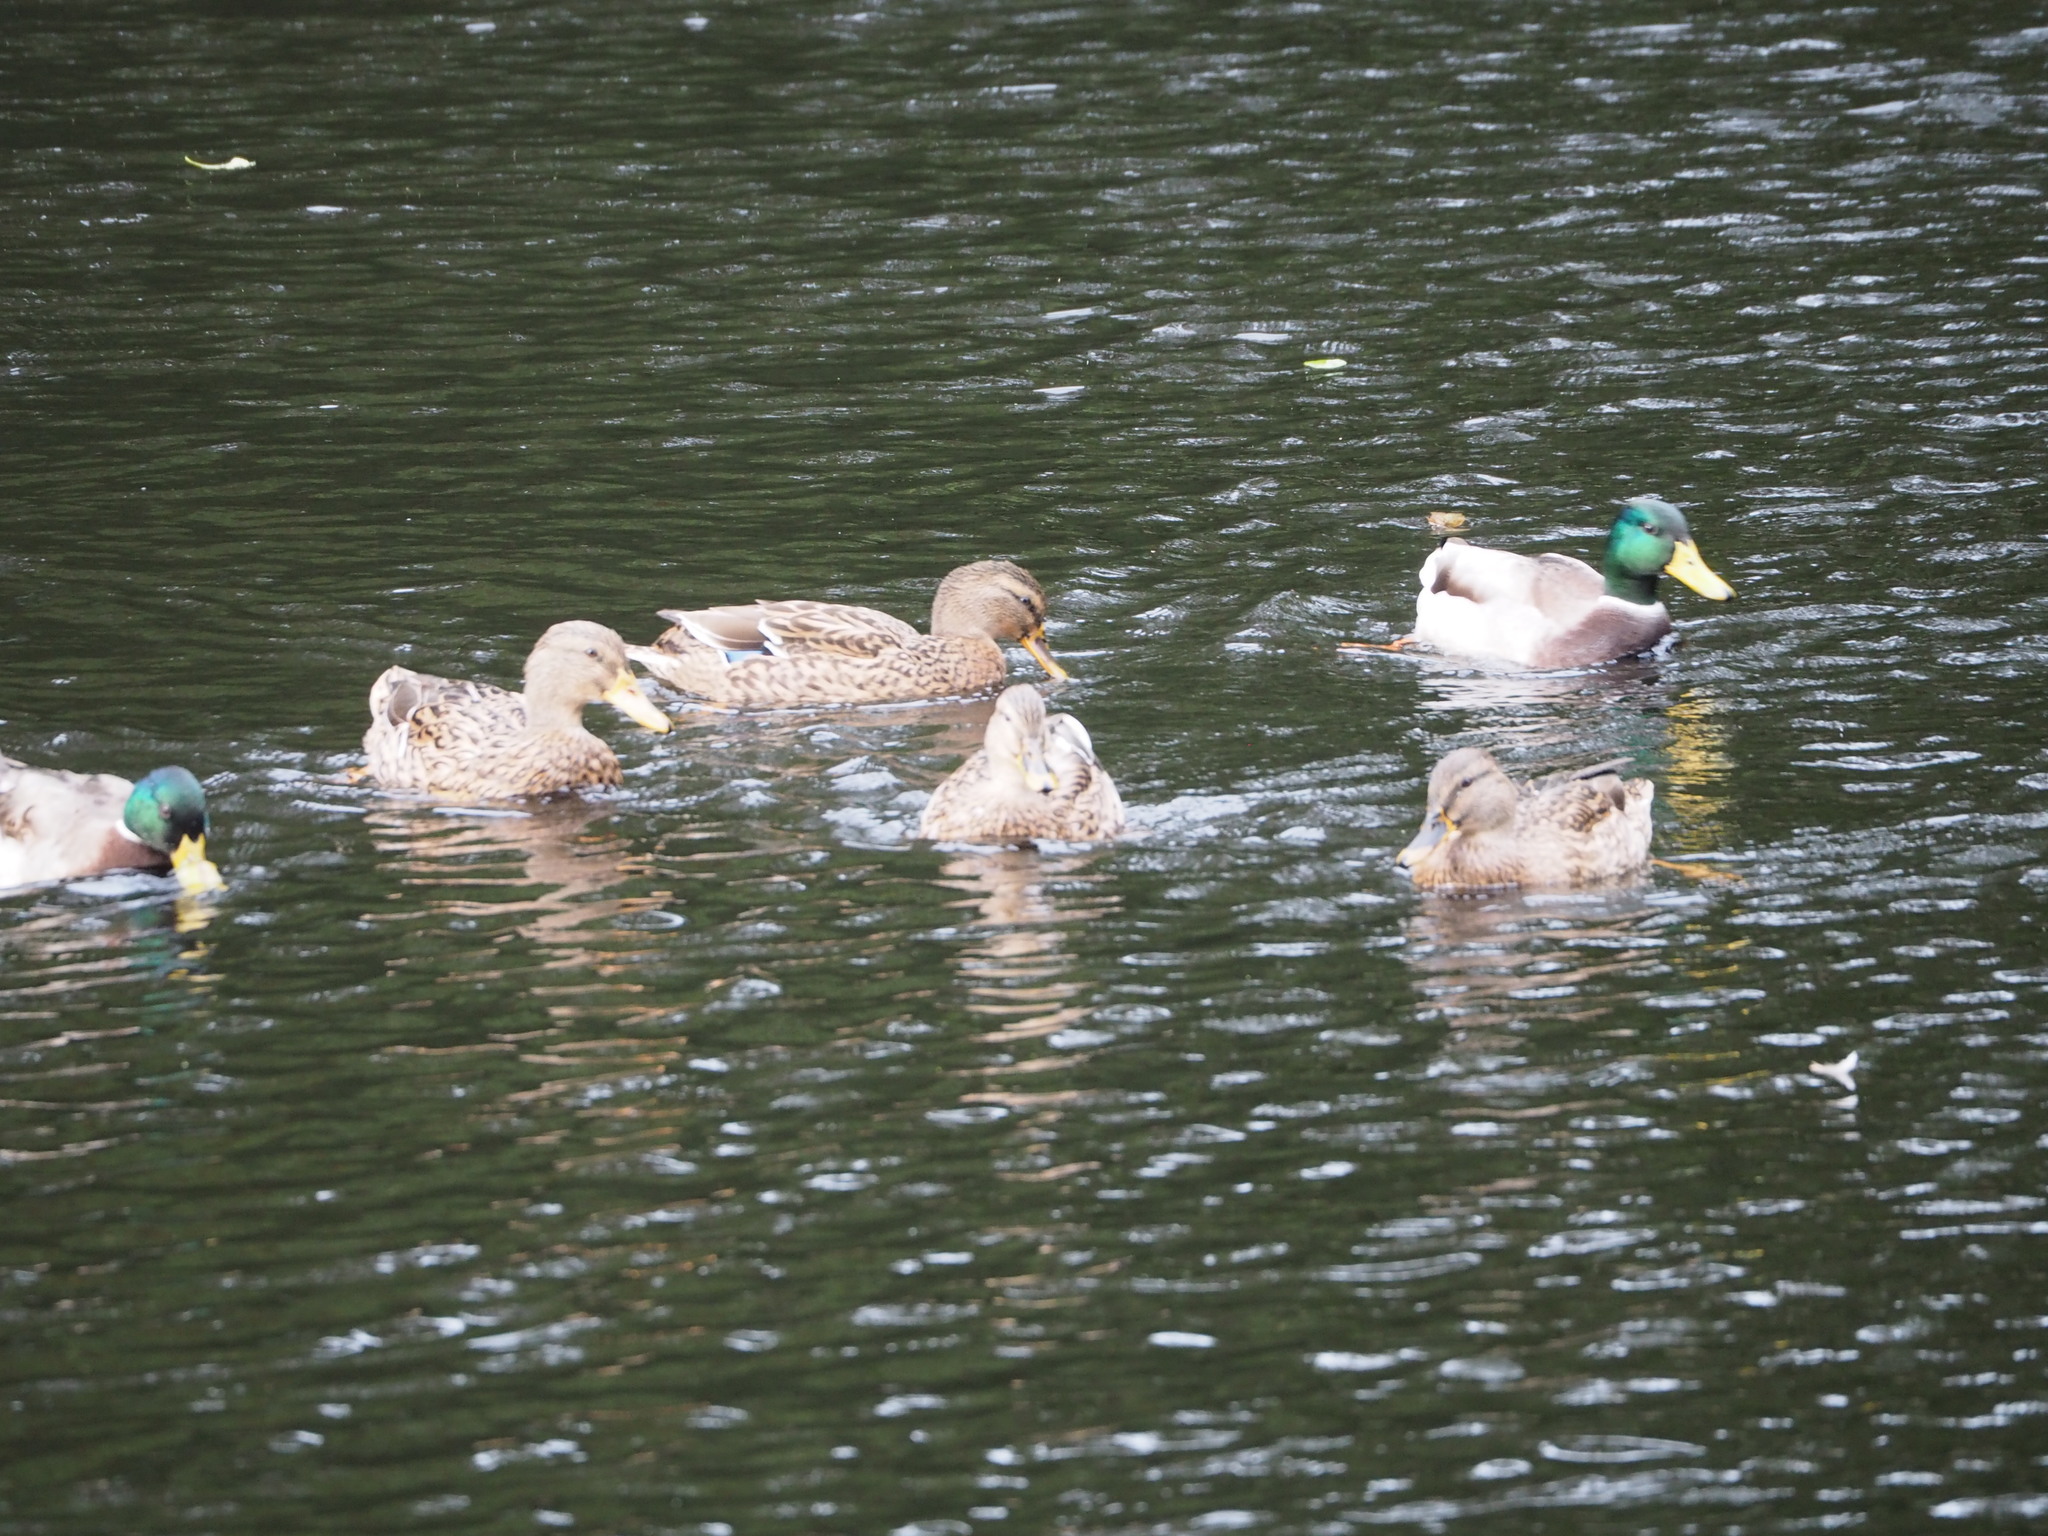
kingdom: Animalia
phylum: Chordata
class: Aves
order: Anseriformes
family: Anatidae
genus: Anas
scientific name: Anas platyrhynchos
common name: Mallard
